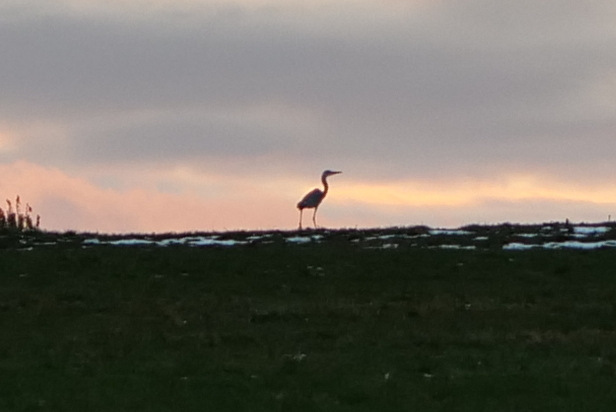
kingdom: Animalia
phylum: Chordata
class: Aves
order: Pelecaniformes
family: Ardeidae
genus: Ardea
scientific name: Ardea cinerea
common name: Grey heron
